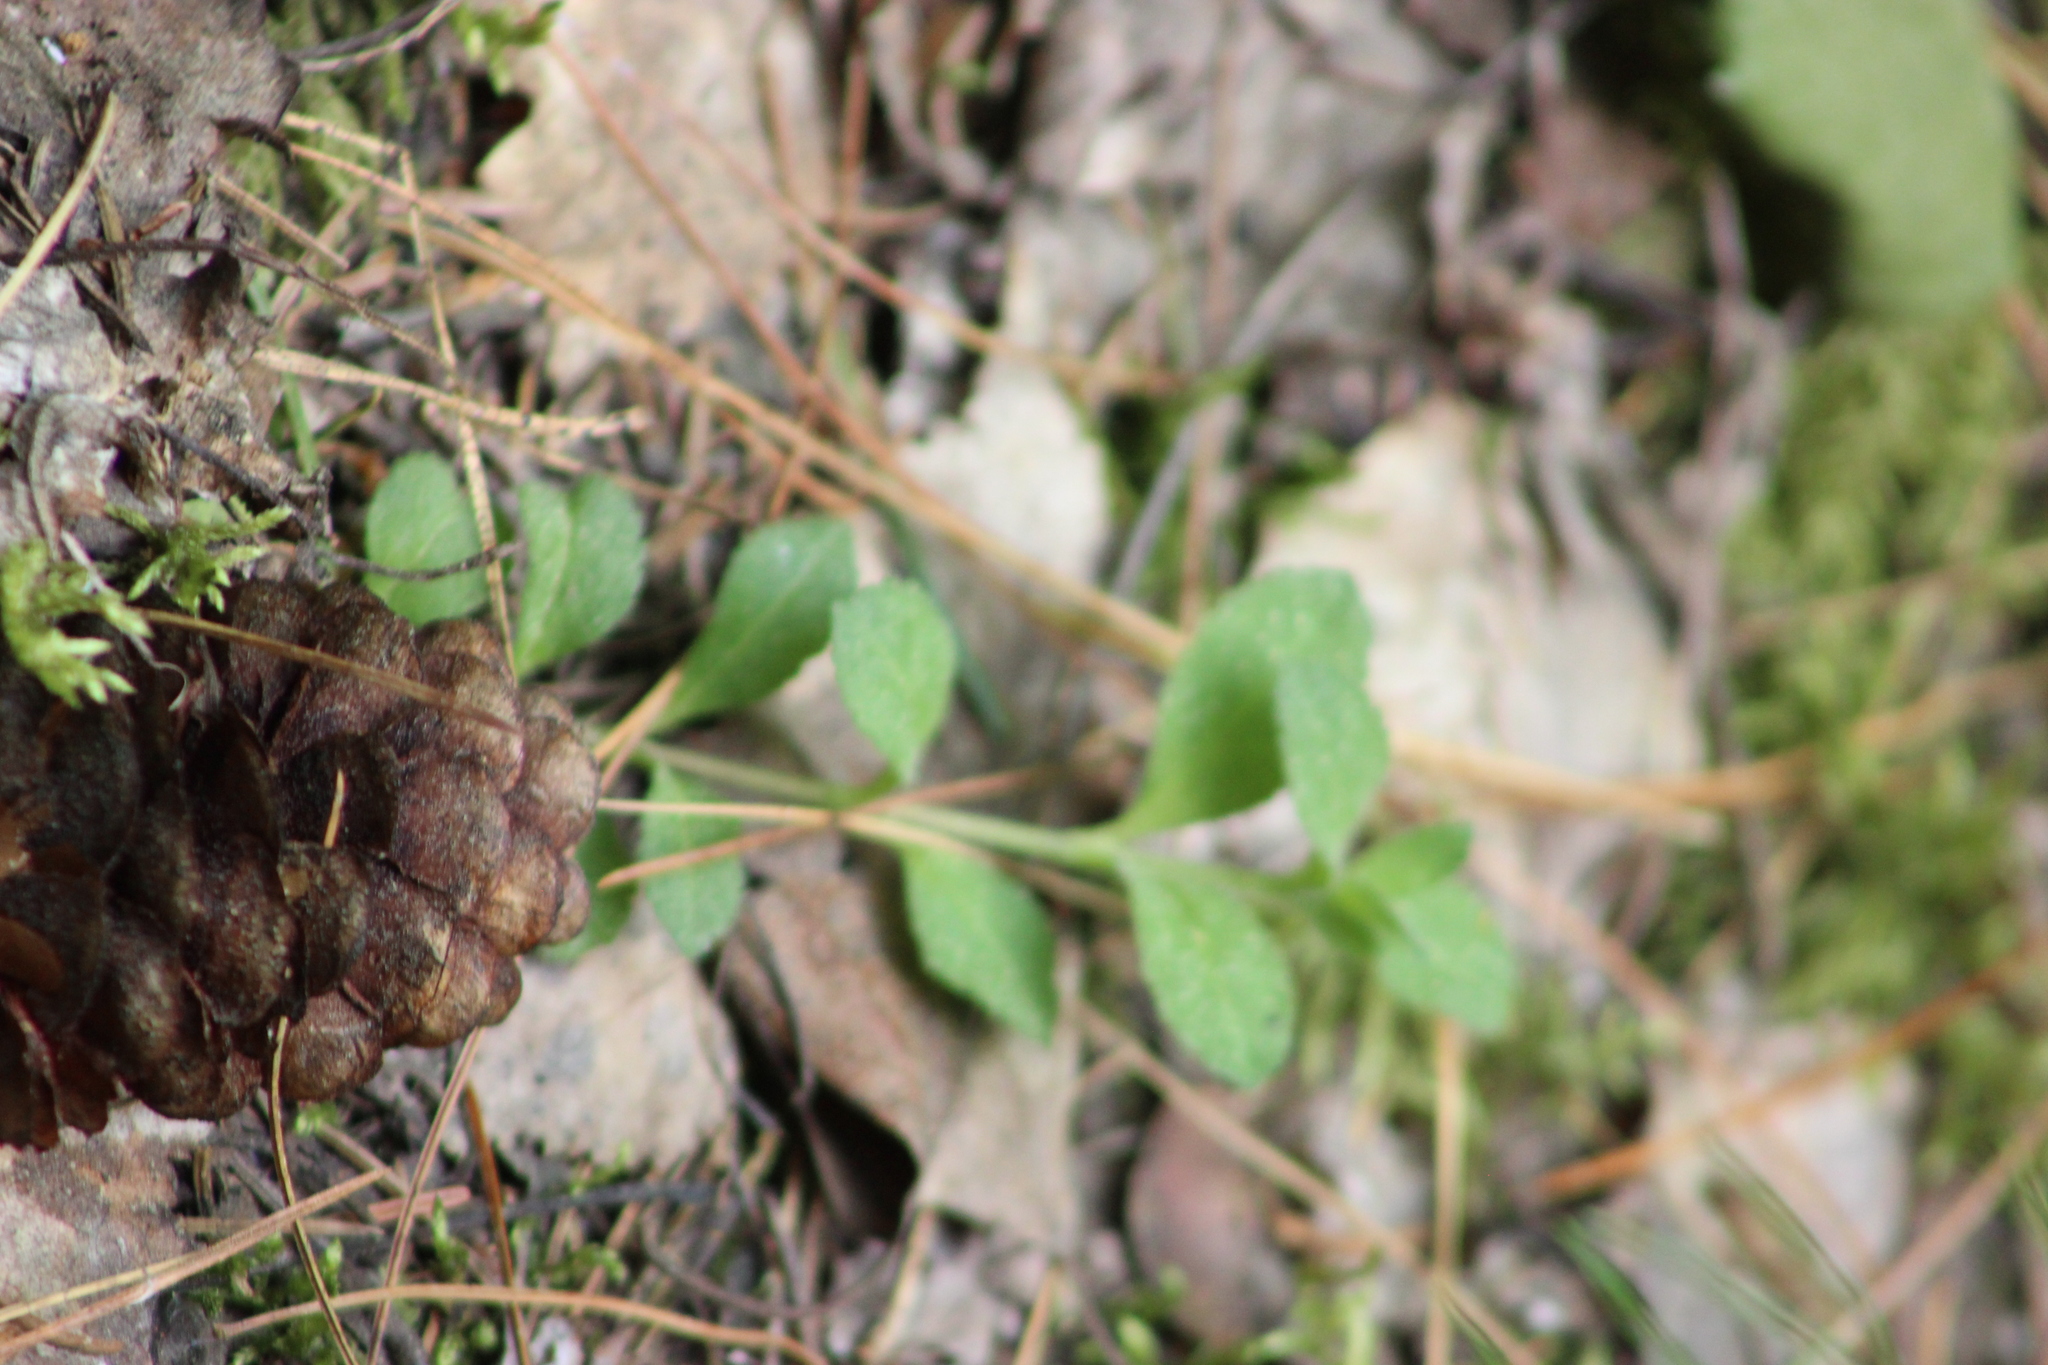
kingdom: Plantae
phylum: Tracheophyta
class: Magnoliopsida
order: Lamiales
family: Plantaginaceae
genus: Veronica
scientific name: Veronica officinalis
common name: Common speedwell
